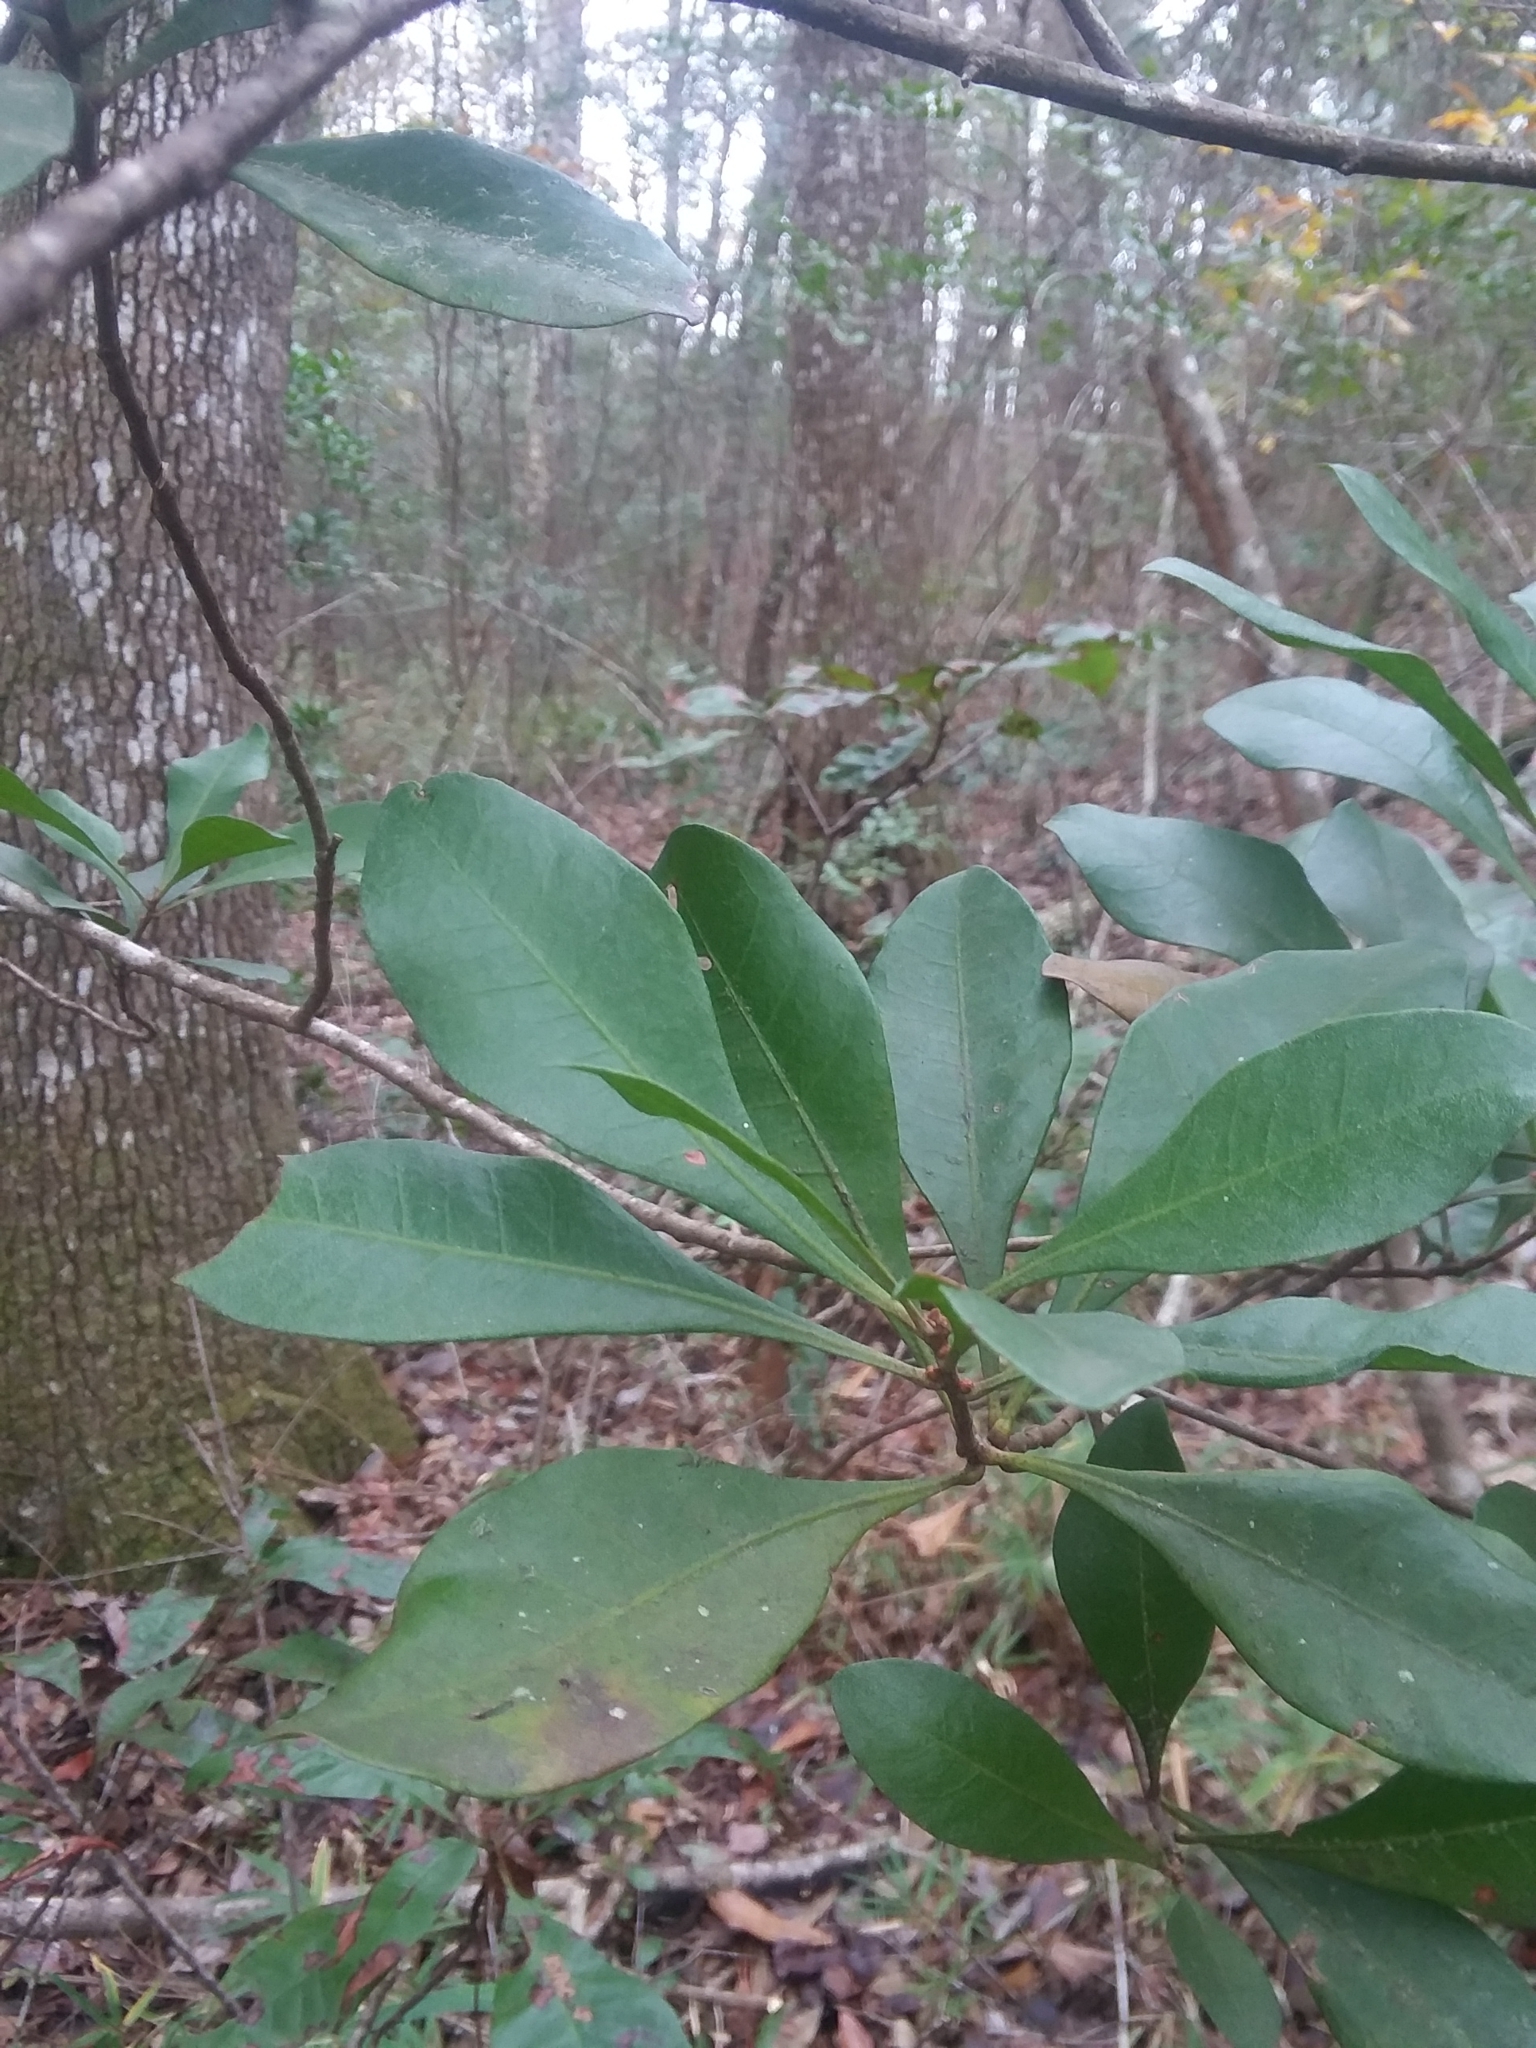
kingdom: Plantae
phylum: Tracheophyta
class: Magnoliopsida
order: Fagales
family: Myricaceae
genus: Morella
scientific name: Morella inodora
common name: Candle-berry
